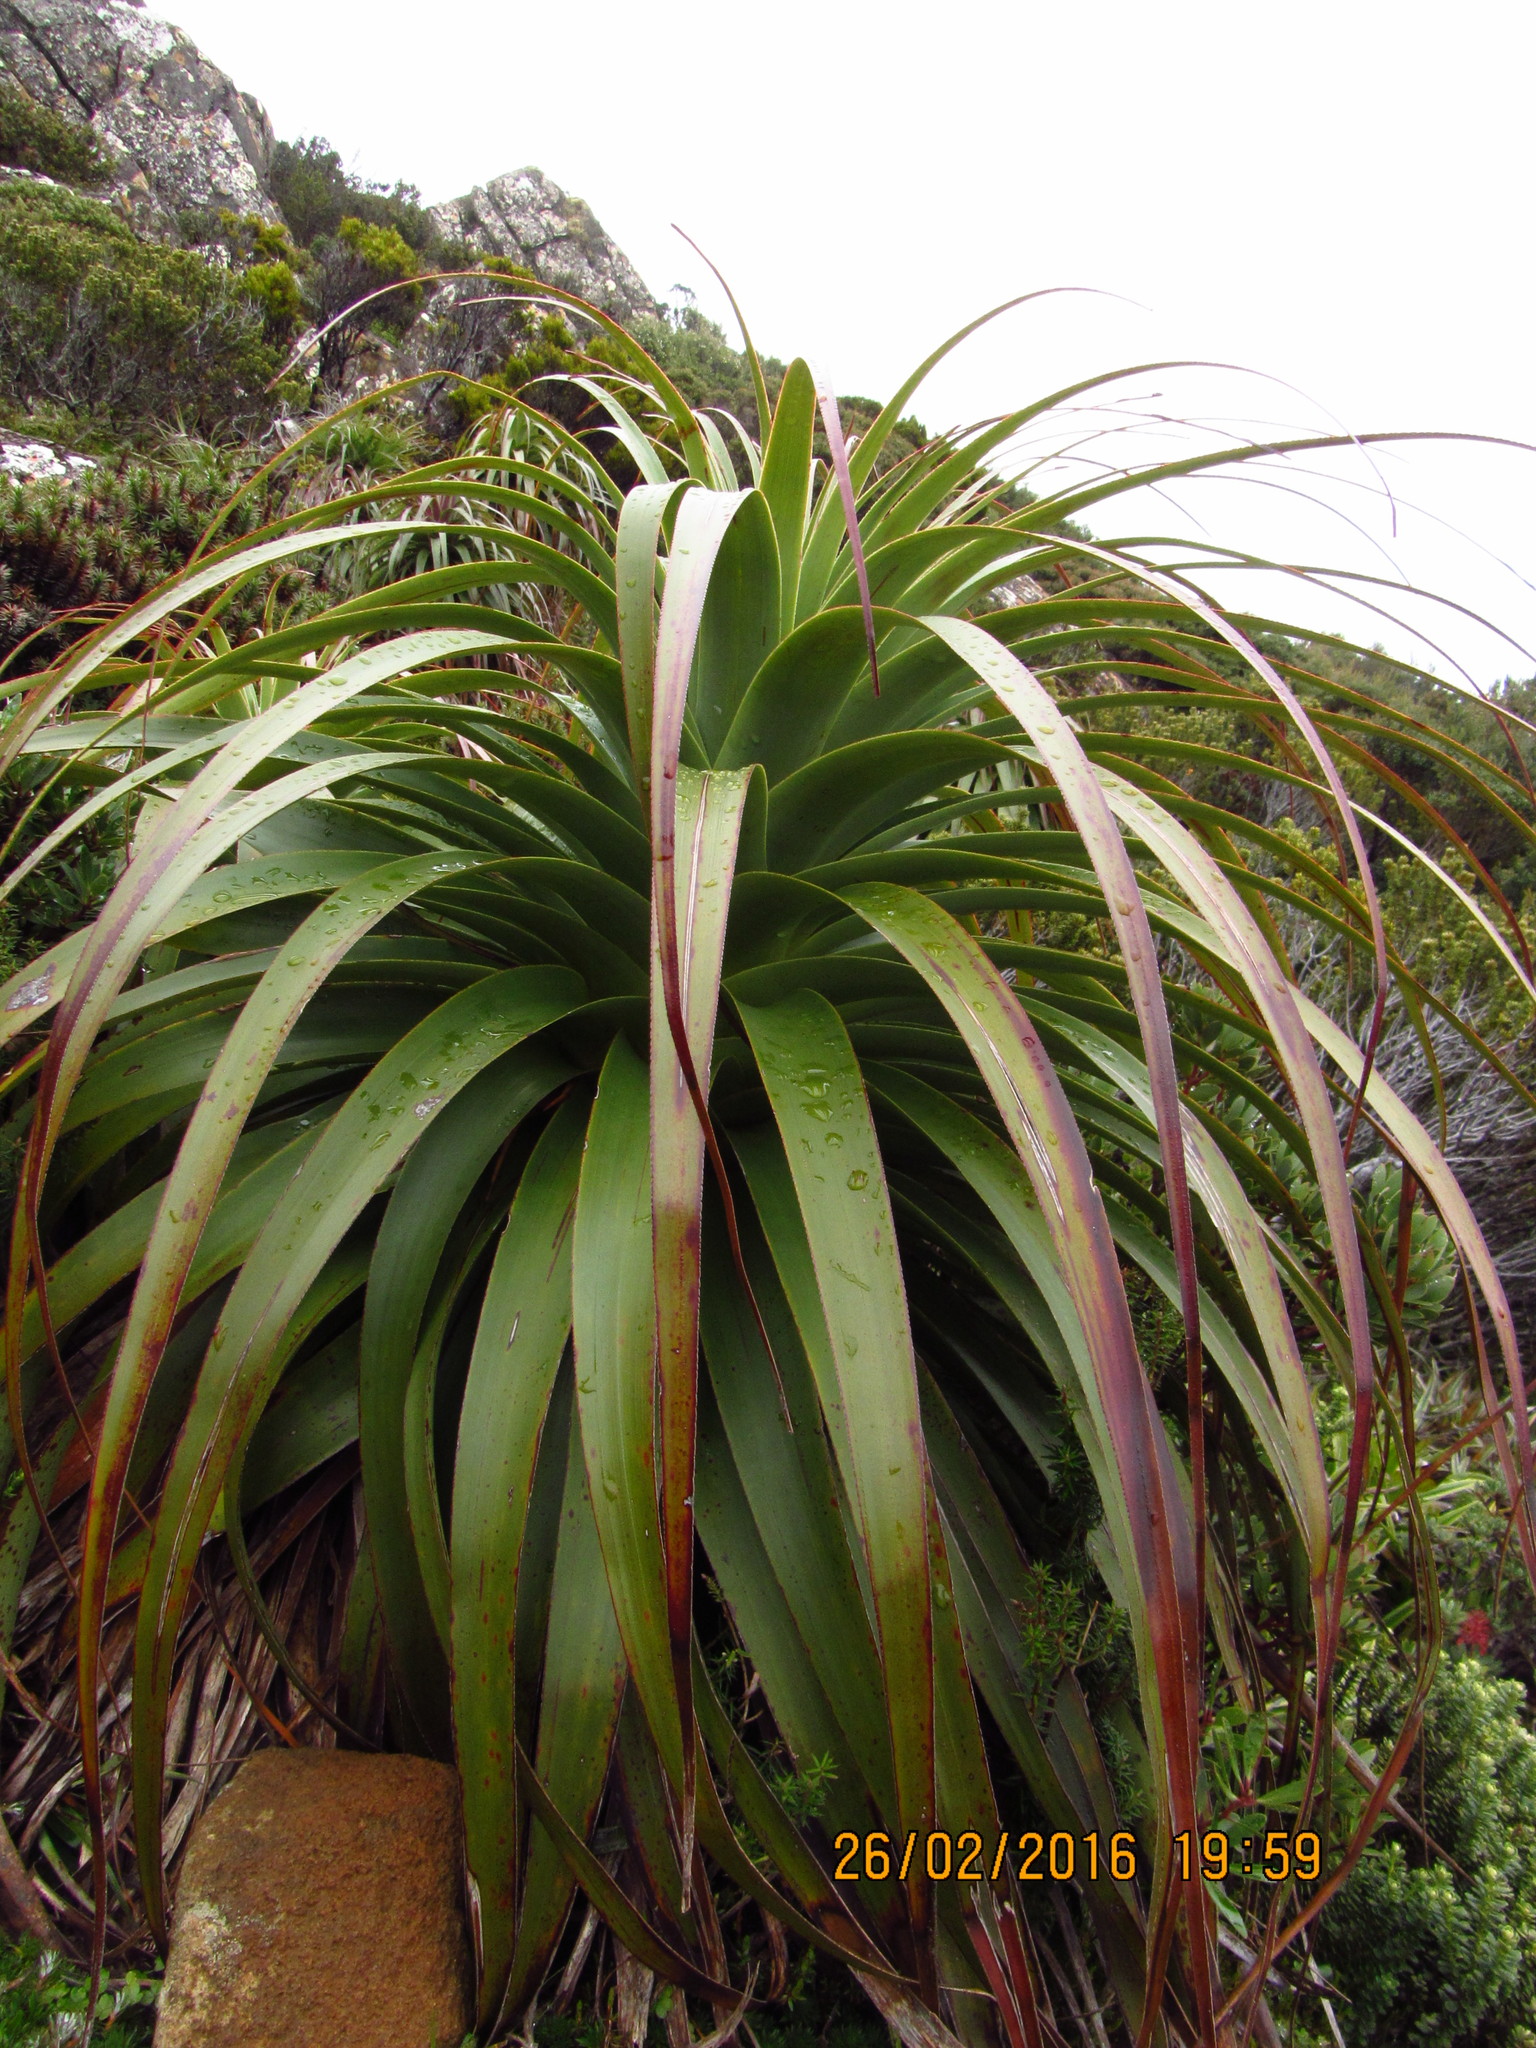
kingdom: Plantae
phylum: Tracheophyta
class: Magnoliopsida
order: Ericales
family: Ericaceae
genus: Dracophyllum
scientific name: Dracophyllum pandanifolium
